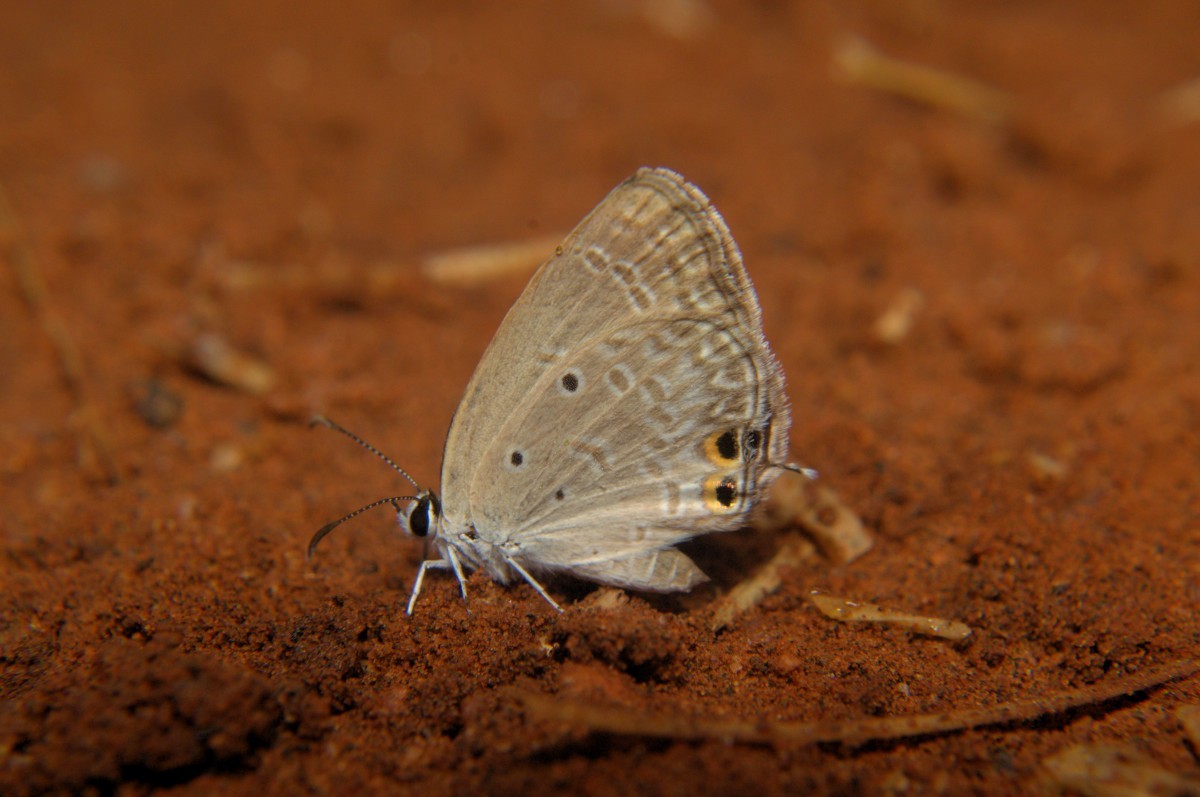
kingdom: Animalia
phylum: Arthropoda
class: Insecta
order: Lepidoptera
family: Lycaenidae
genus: Euchrysops
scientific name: Euchrysops cnejus
